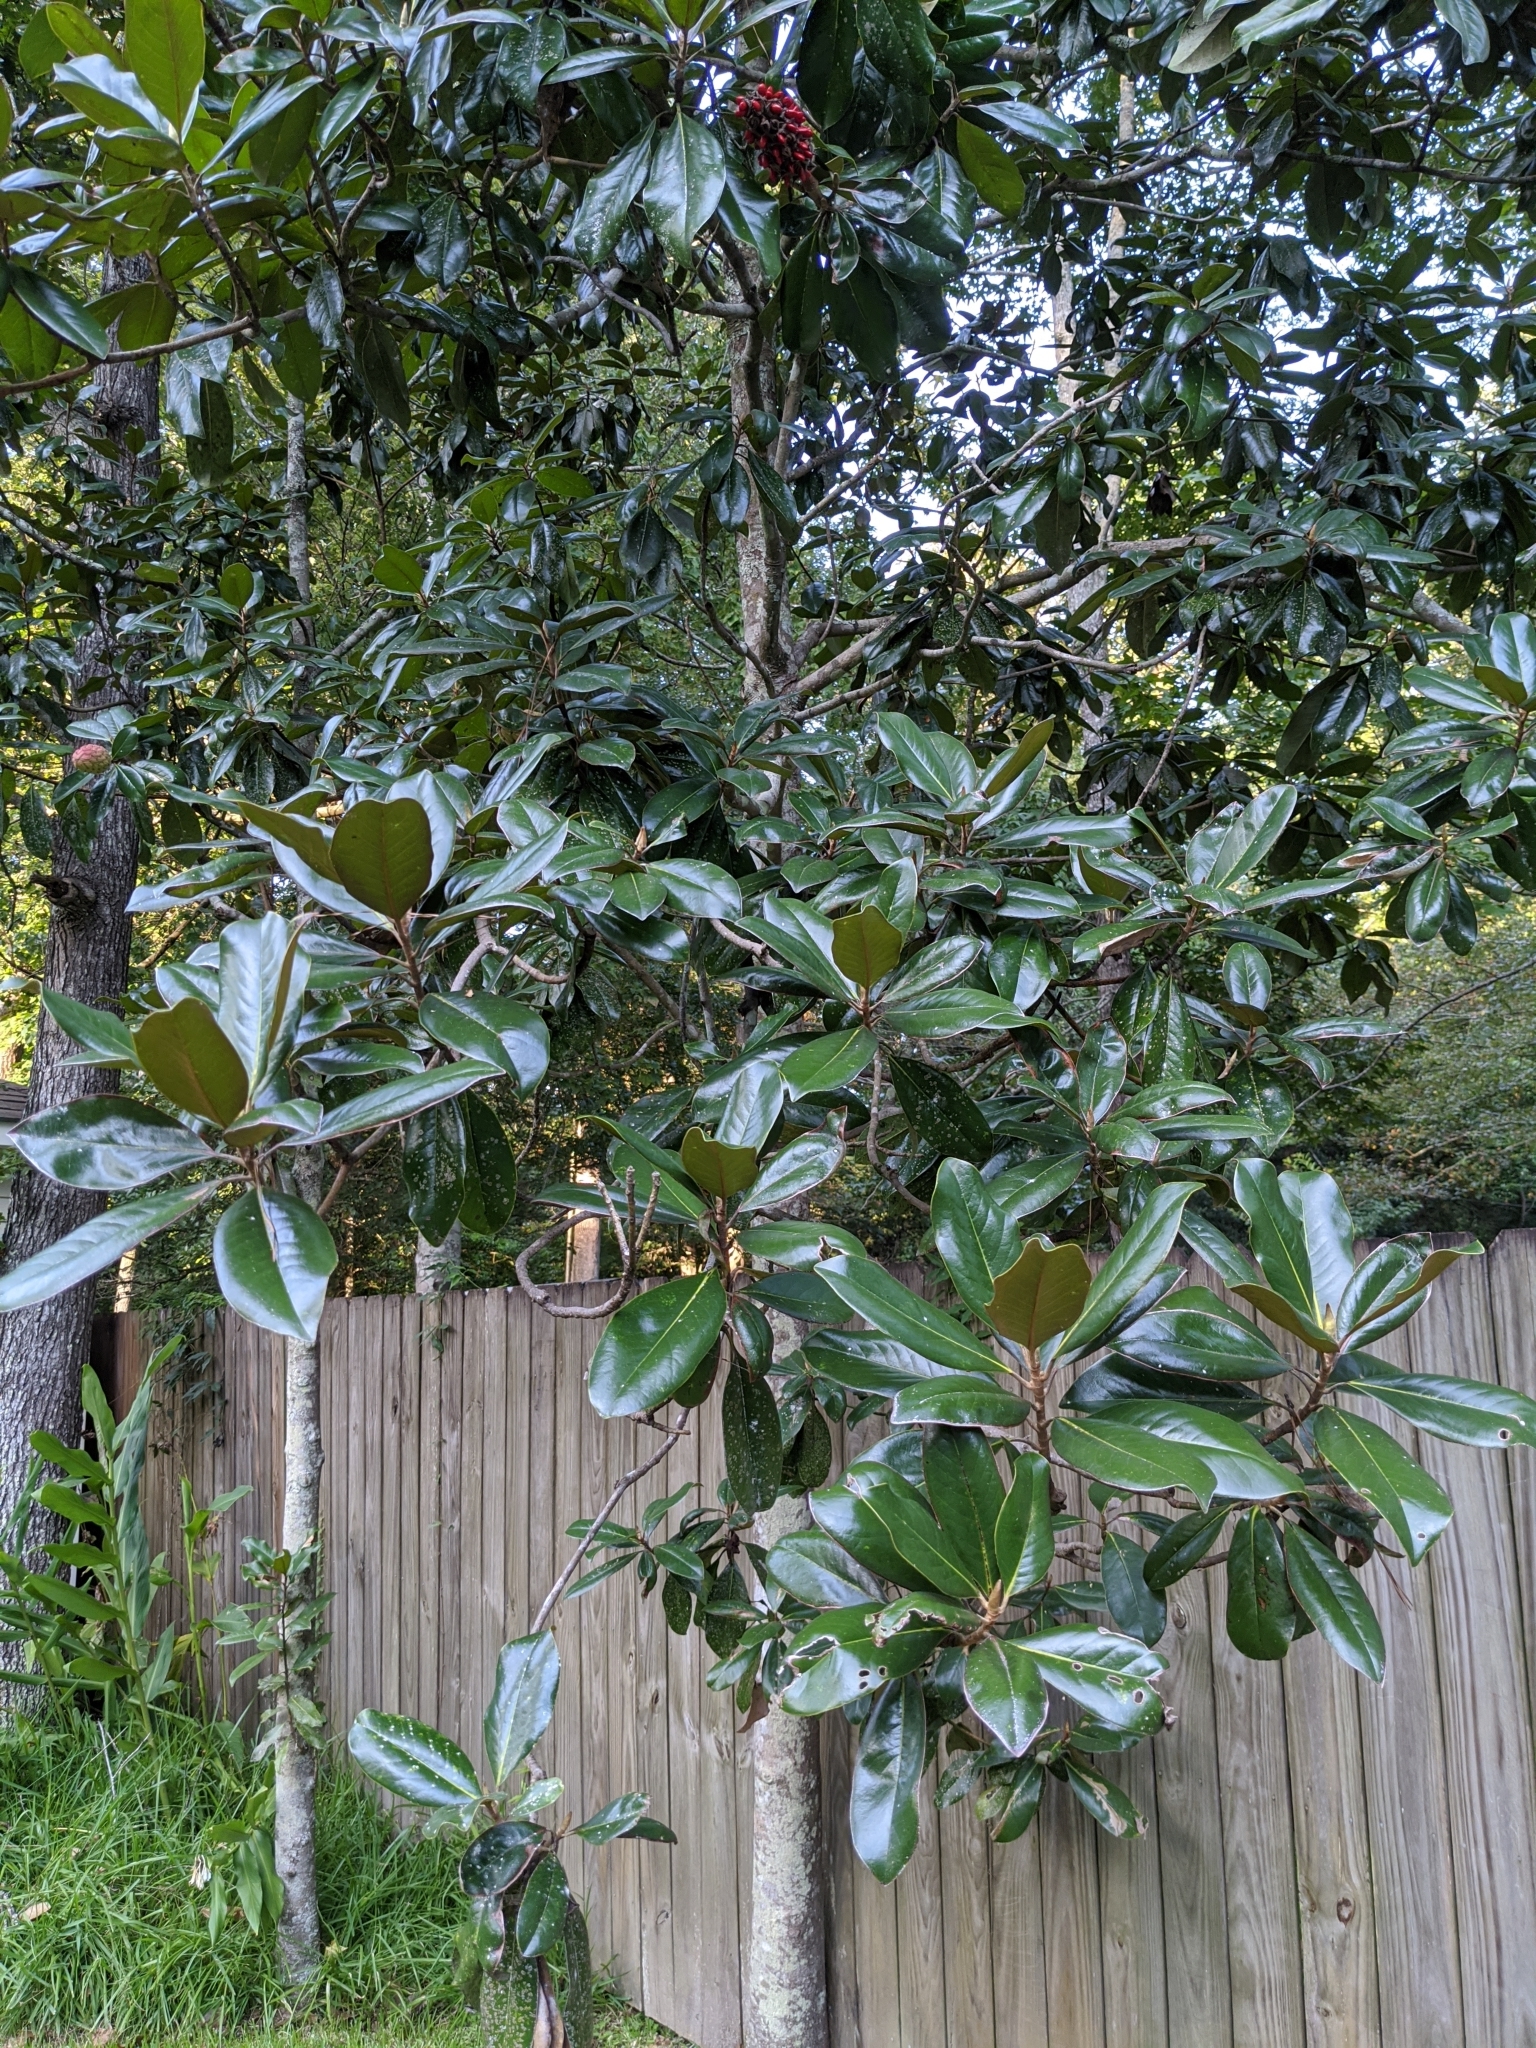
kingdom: Plantae
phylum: Tracheophyta
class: Magnoliopsida
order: Magnoliales
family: Magnoliaceae
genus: Magnolia
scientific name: Magnolia grandiflora
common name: Southern magnolia
